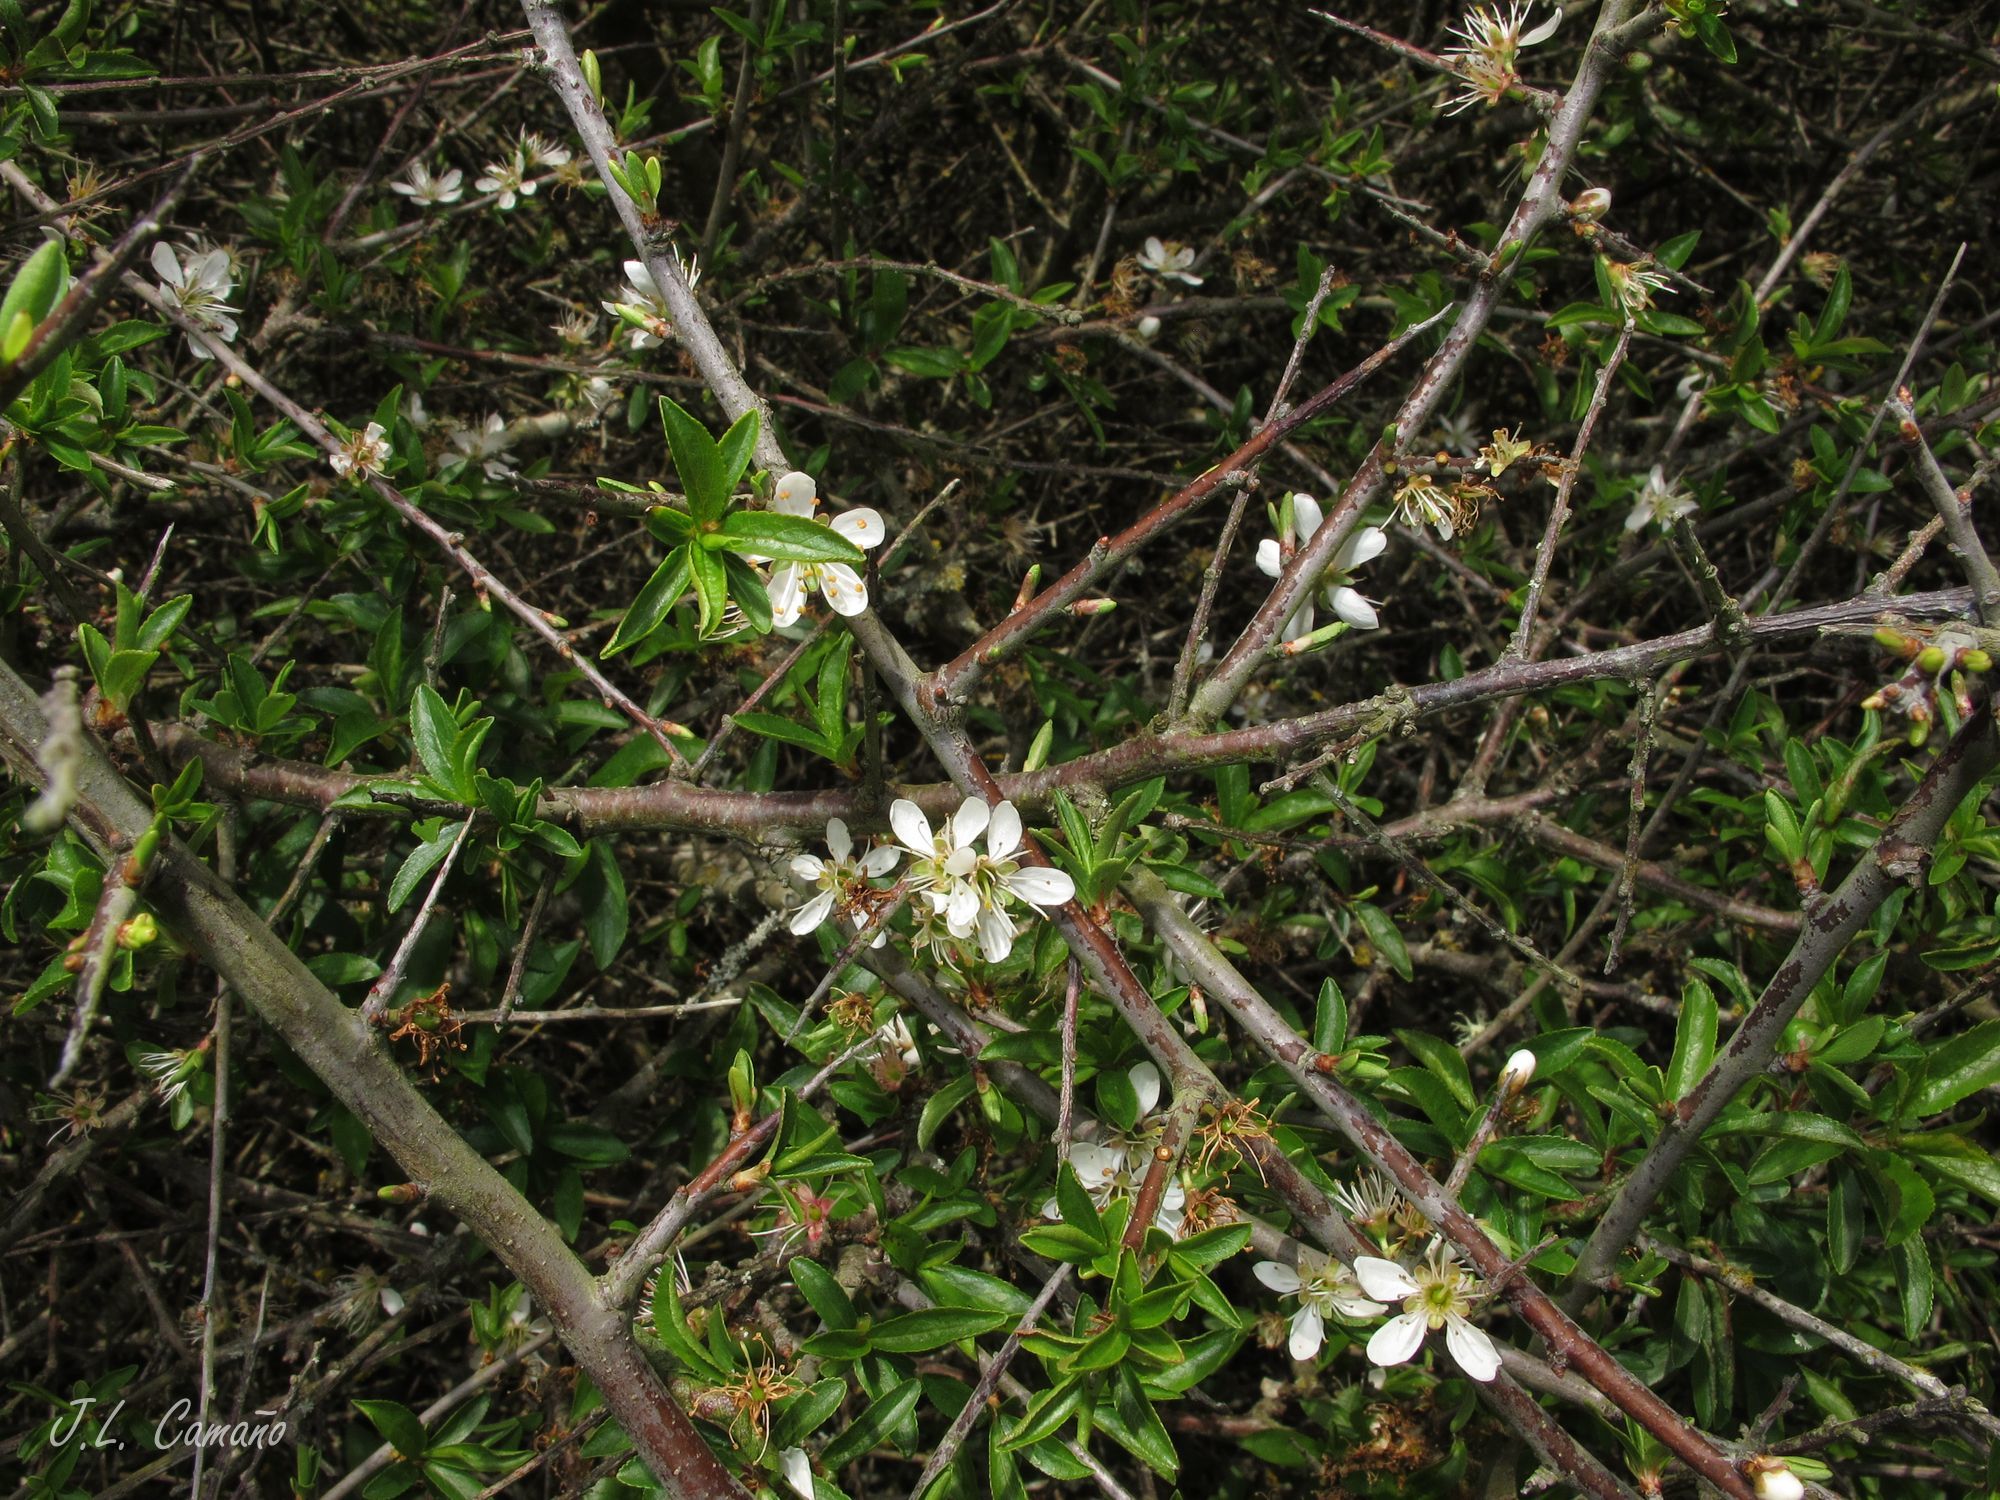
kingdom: Plantae
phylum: Tracheophyta
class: Magnoliopsida
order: Rosales
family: Rosaceae
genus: Prunus
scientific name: Prunus spinosa
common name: Blackthorn
